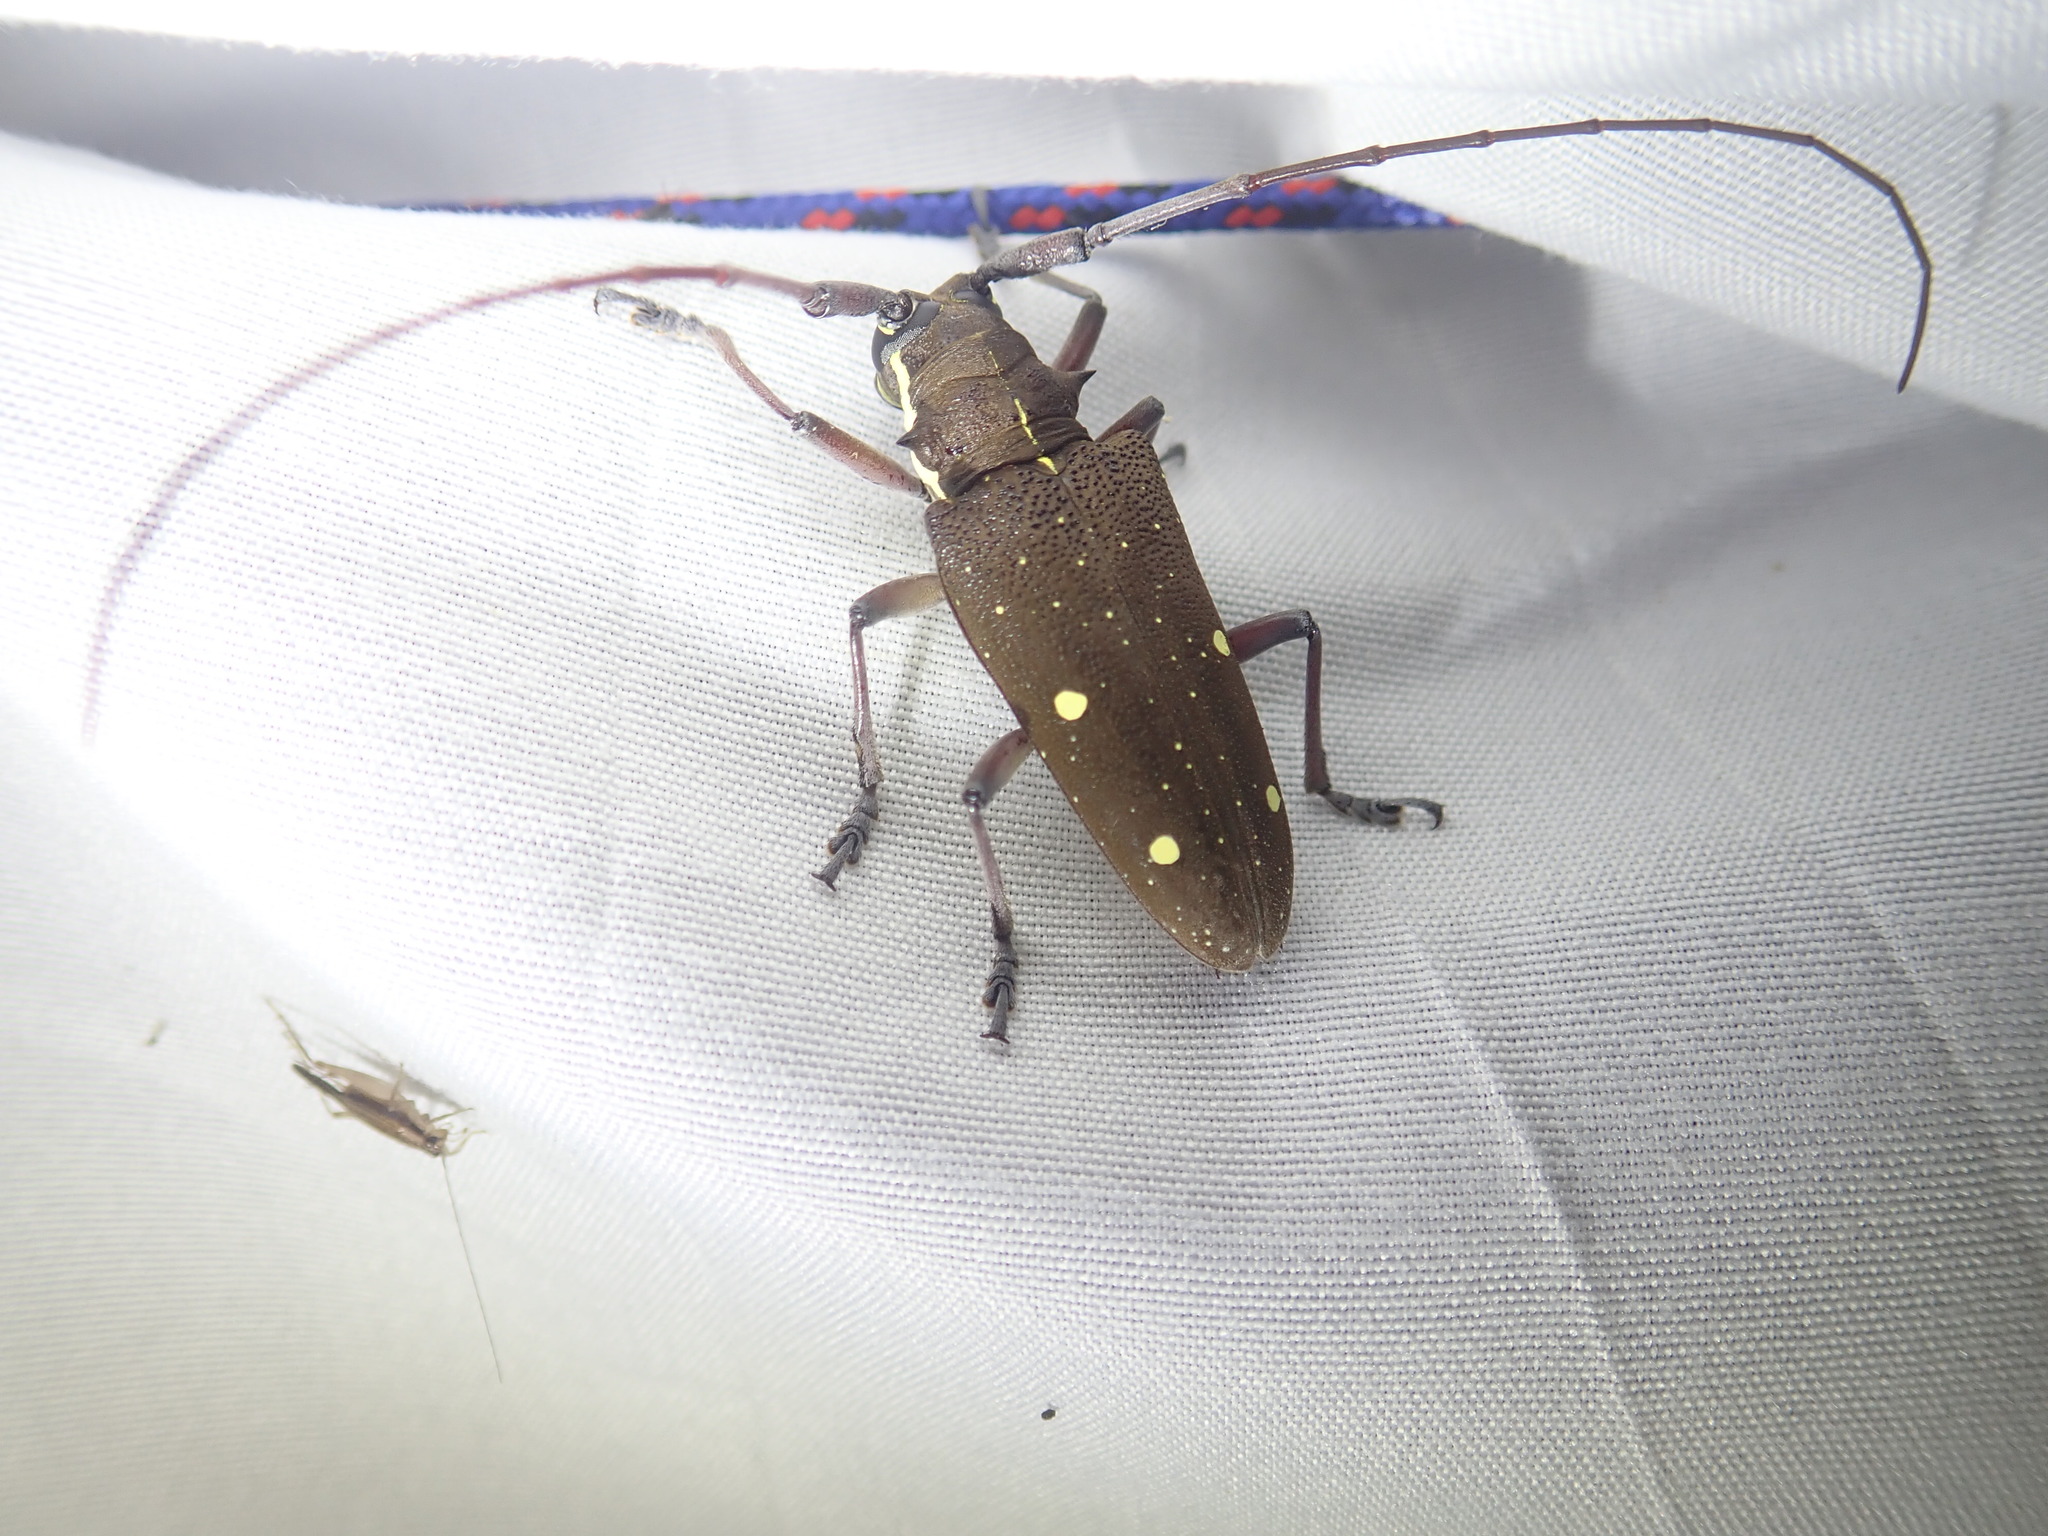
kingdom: Animalia
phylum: Arthropoda
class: Insecta
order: Coleoptera
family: Cerambycidae
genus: Taeniotes
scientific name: Taeniotes xanthostictus
